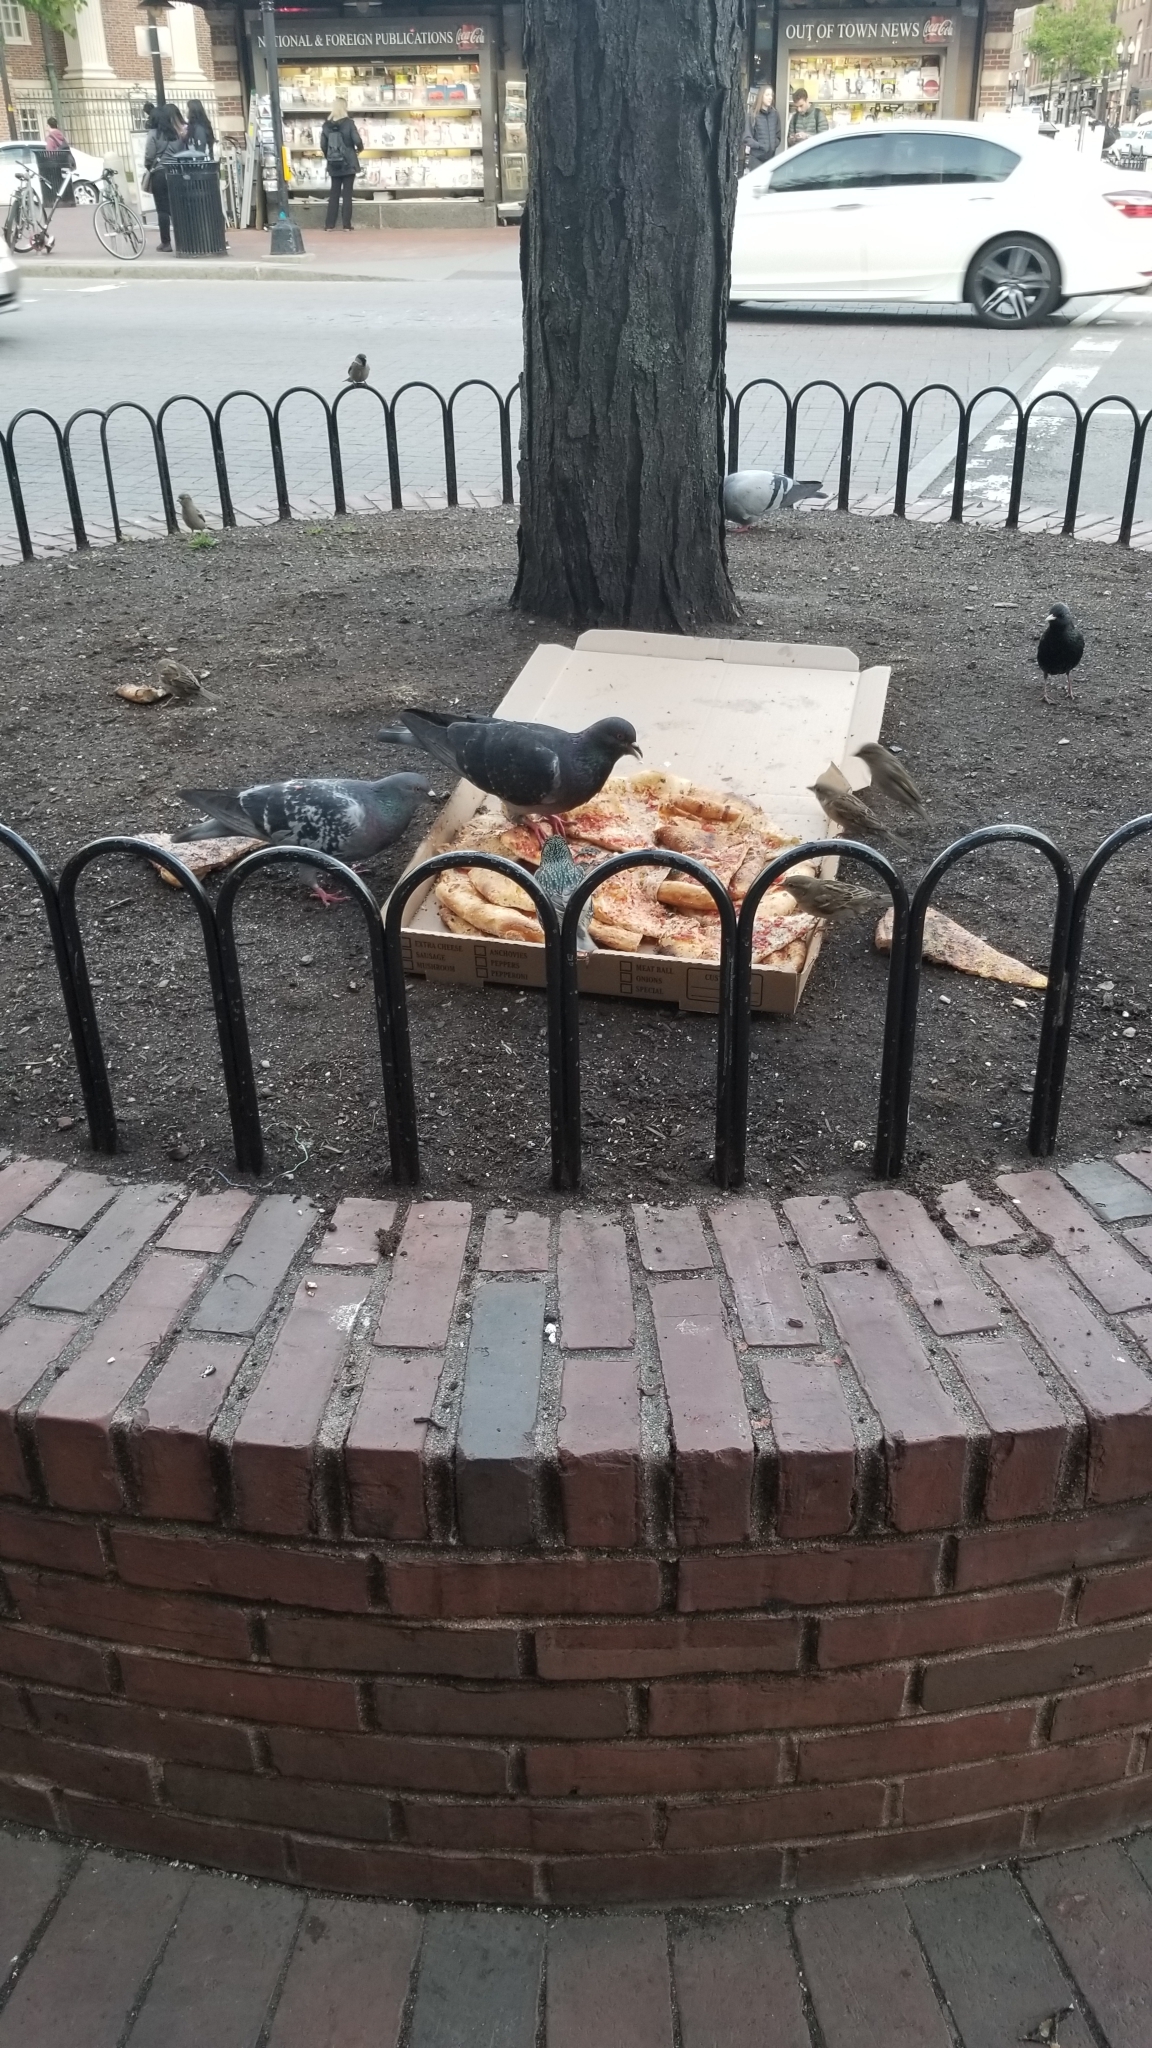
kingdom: Animalia
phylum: Chordata
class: Aves
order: Columbiformes
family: Columbidae
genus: Columba
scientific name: Columba livia
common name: Rock pigeon
